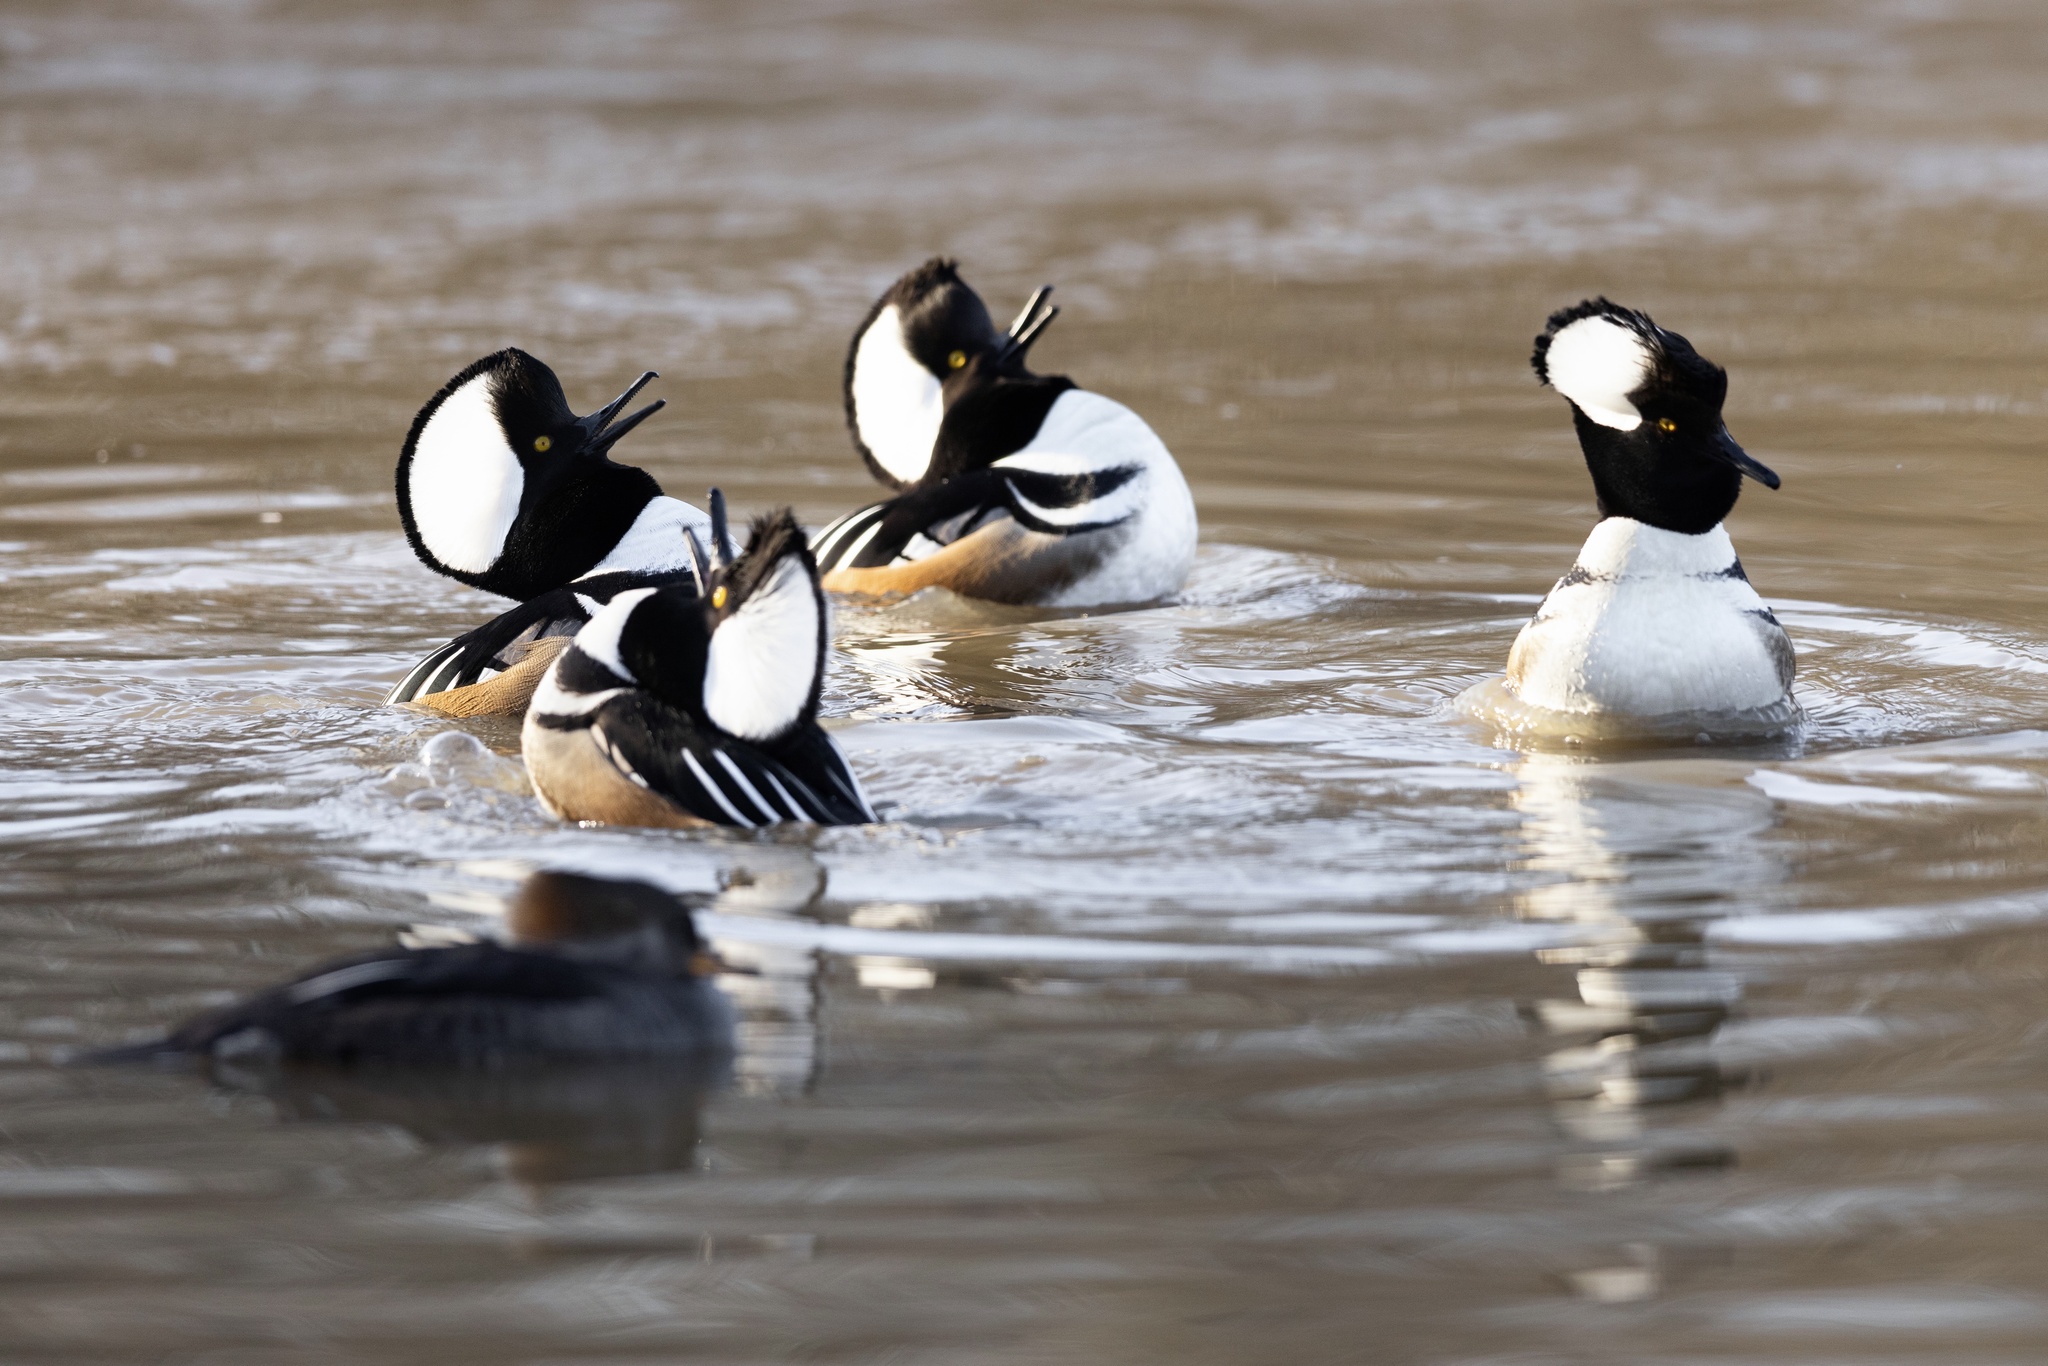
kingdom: Animalia
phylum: Chordata
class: Aves
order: Anseriformes
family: Anatidae
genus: Lophodytes
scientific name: Lophodytes cucullatus
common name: Hooded merganser
